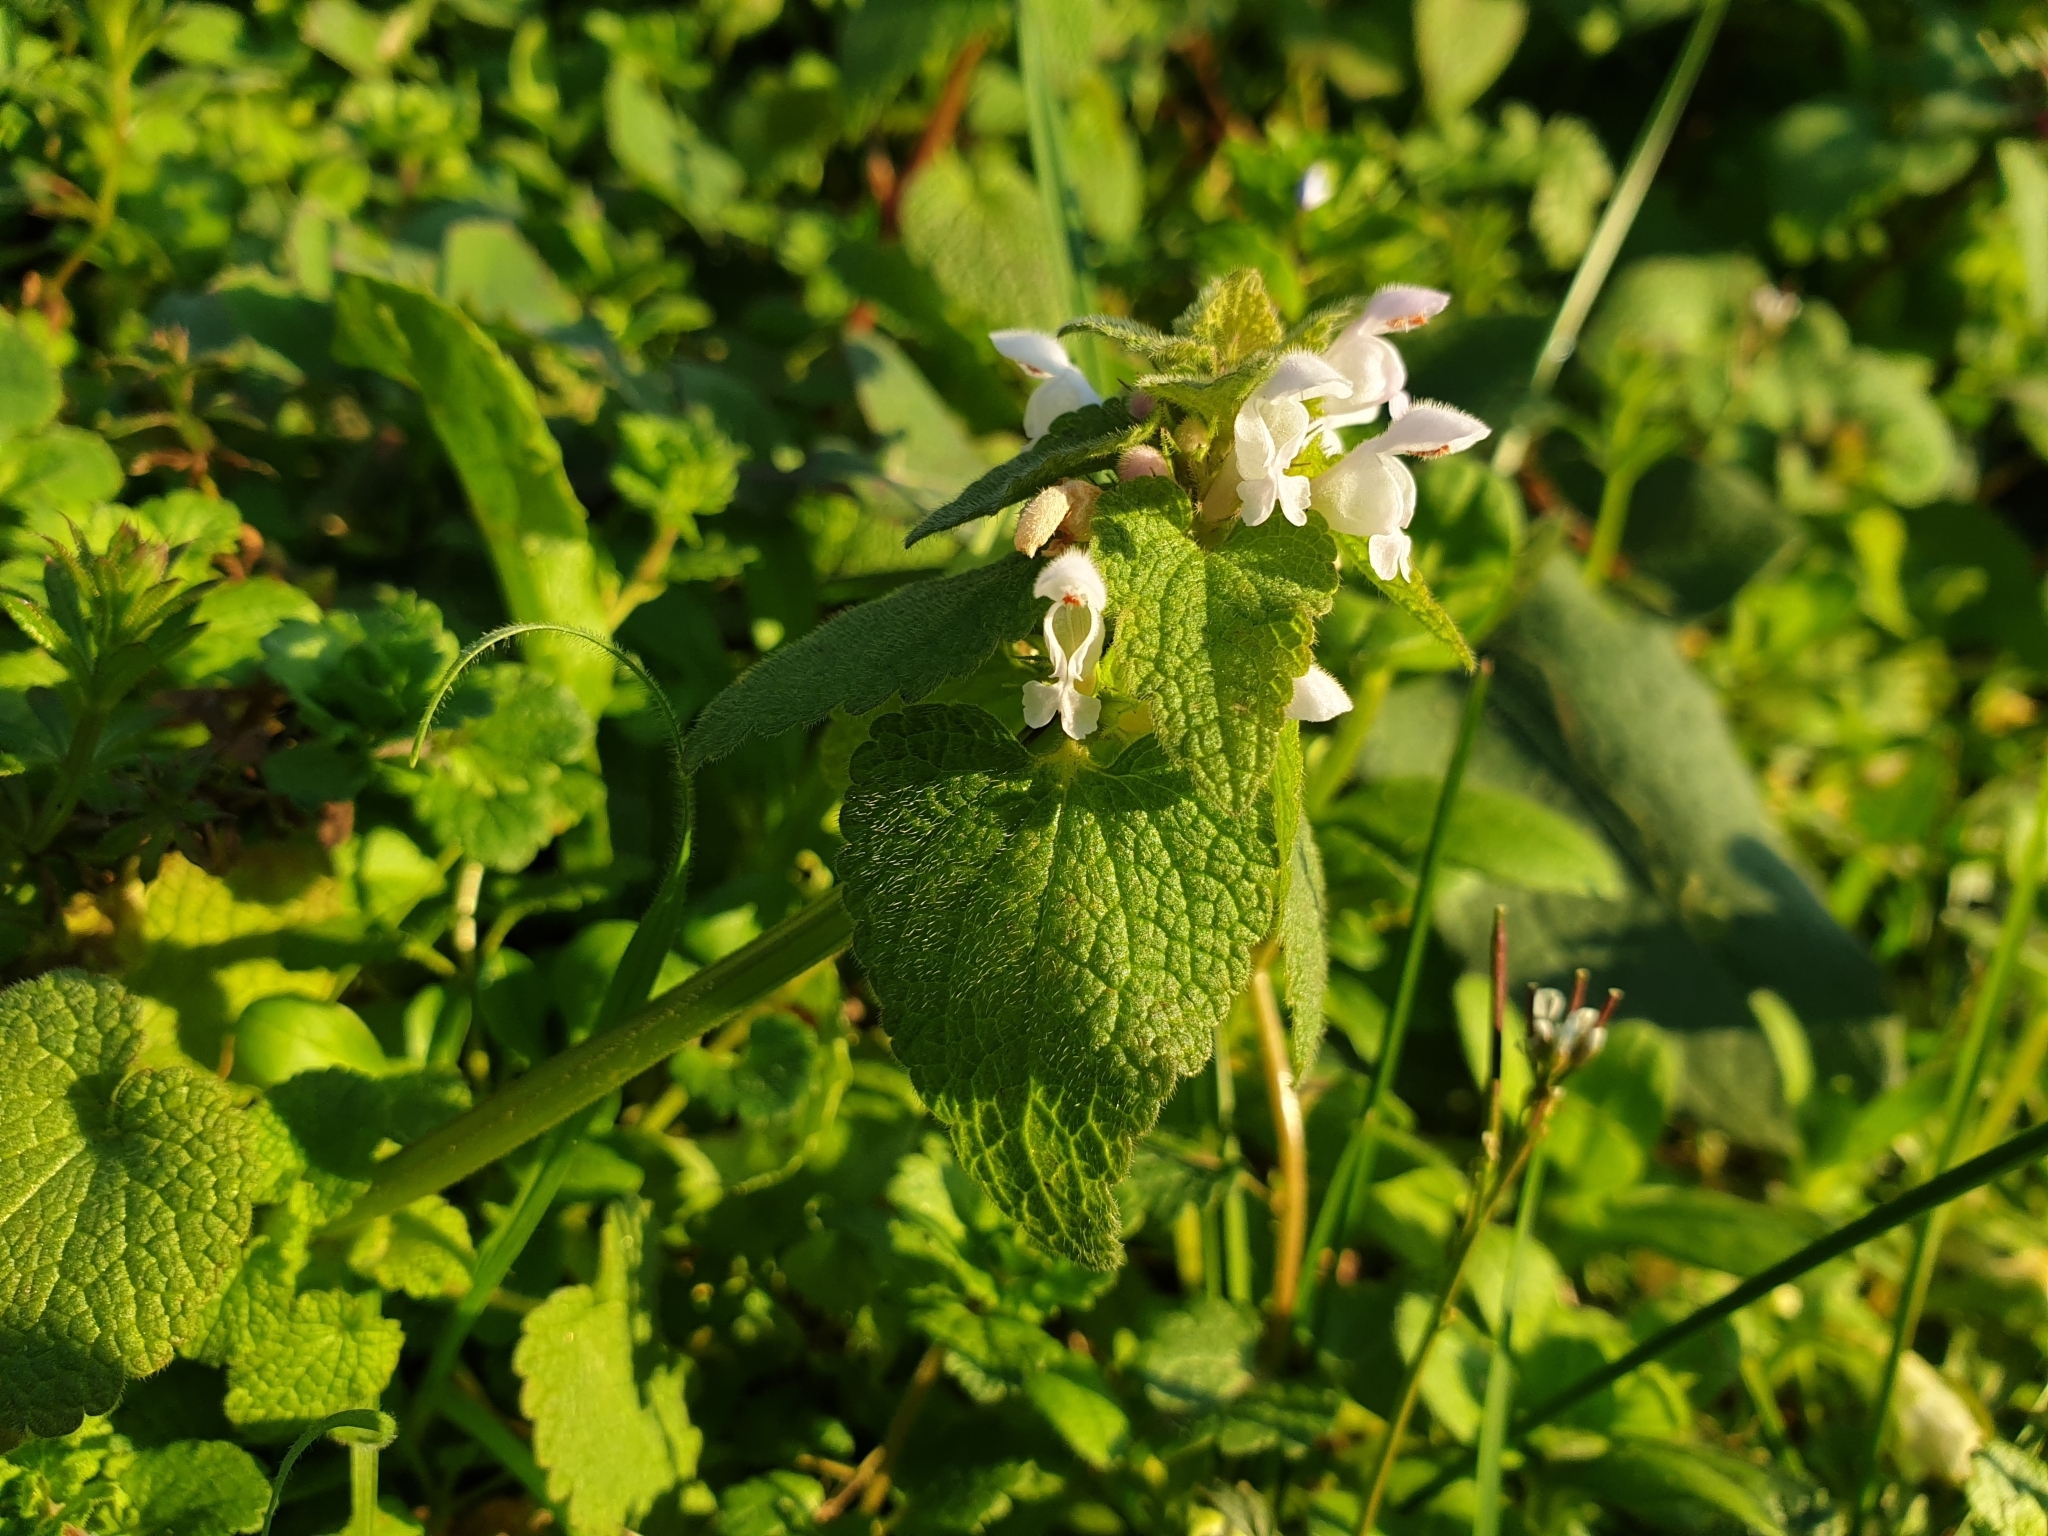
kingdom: Plantae
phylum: Tracheophyta
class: Magnoliopsida
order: Lamiales
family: Lamiaceae
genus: Lamium
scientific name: Lamium purpureum
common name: Red dead-nettle
